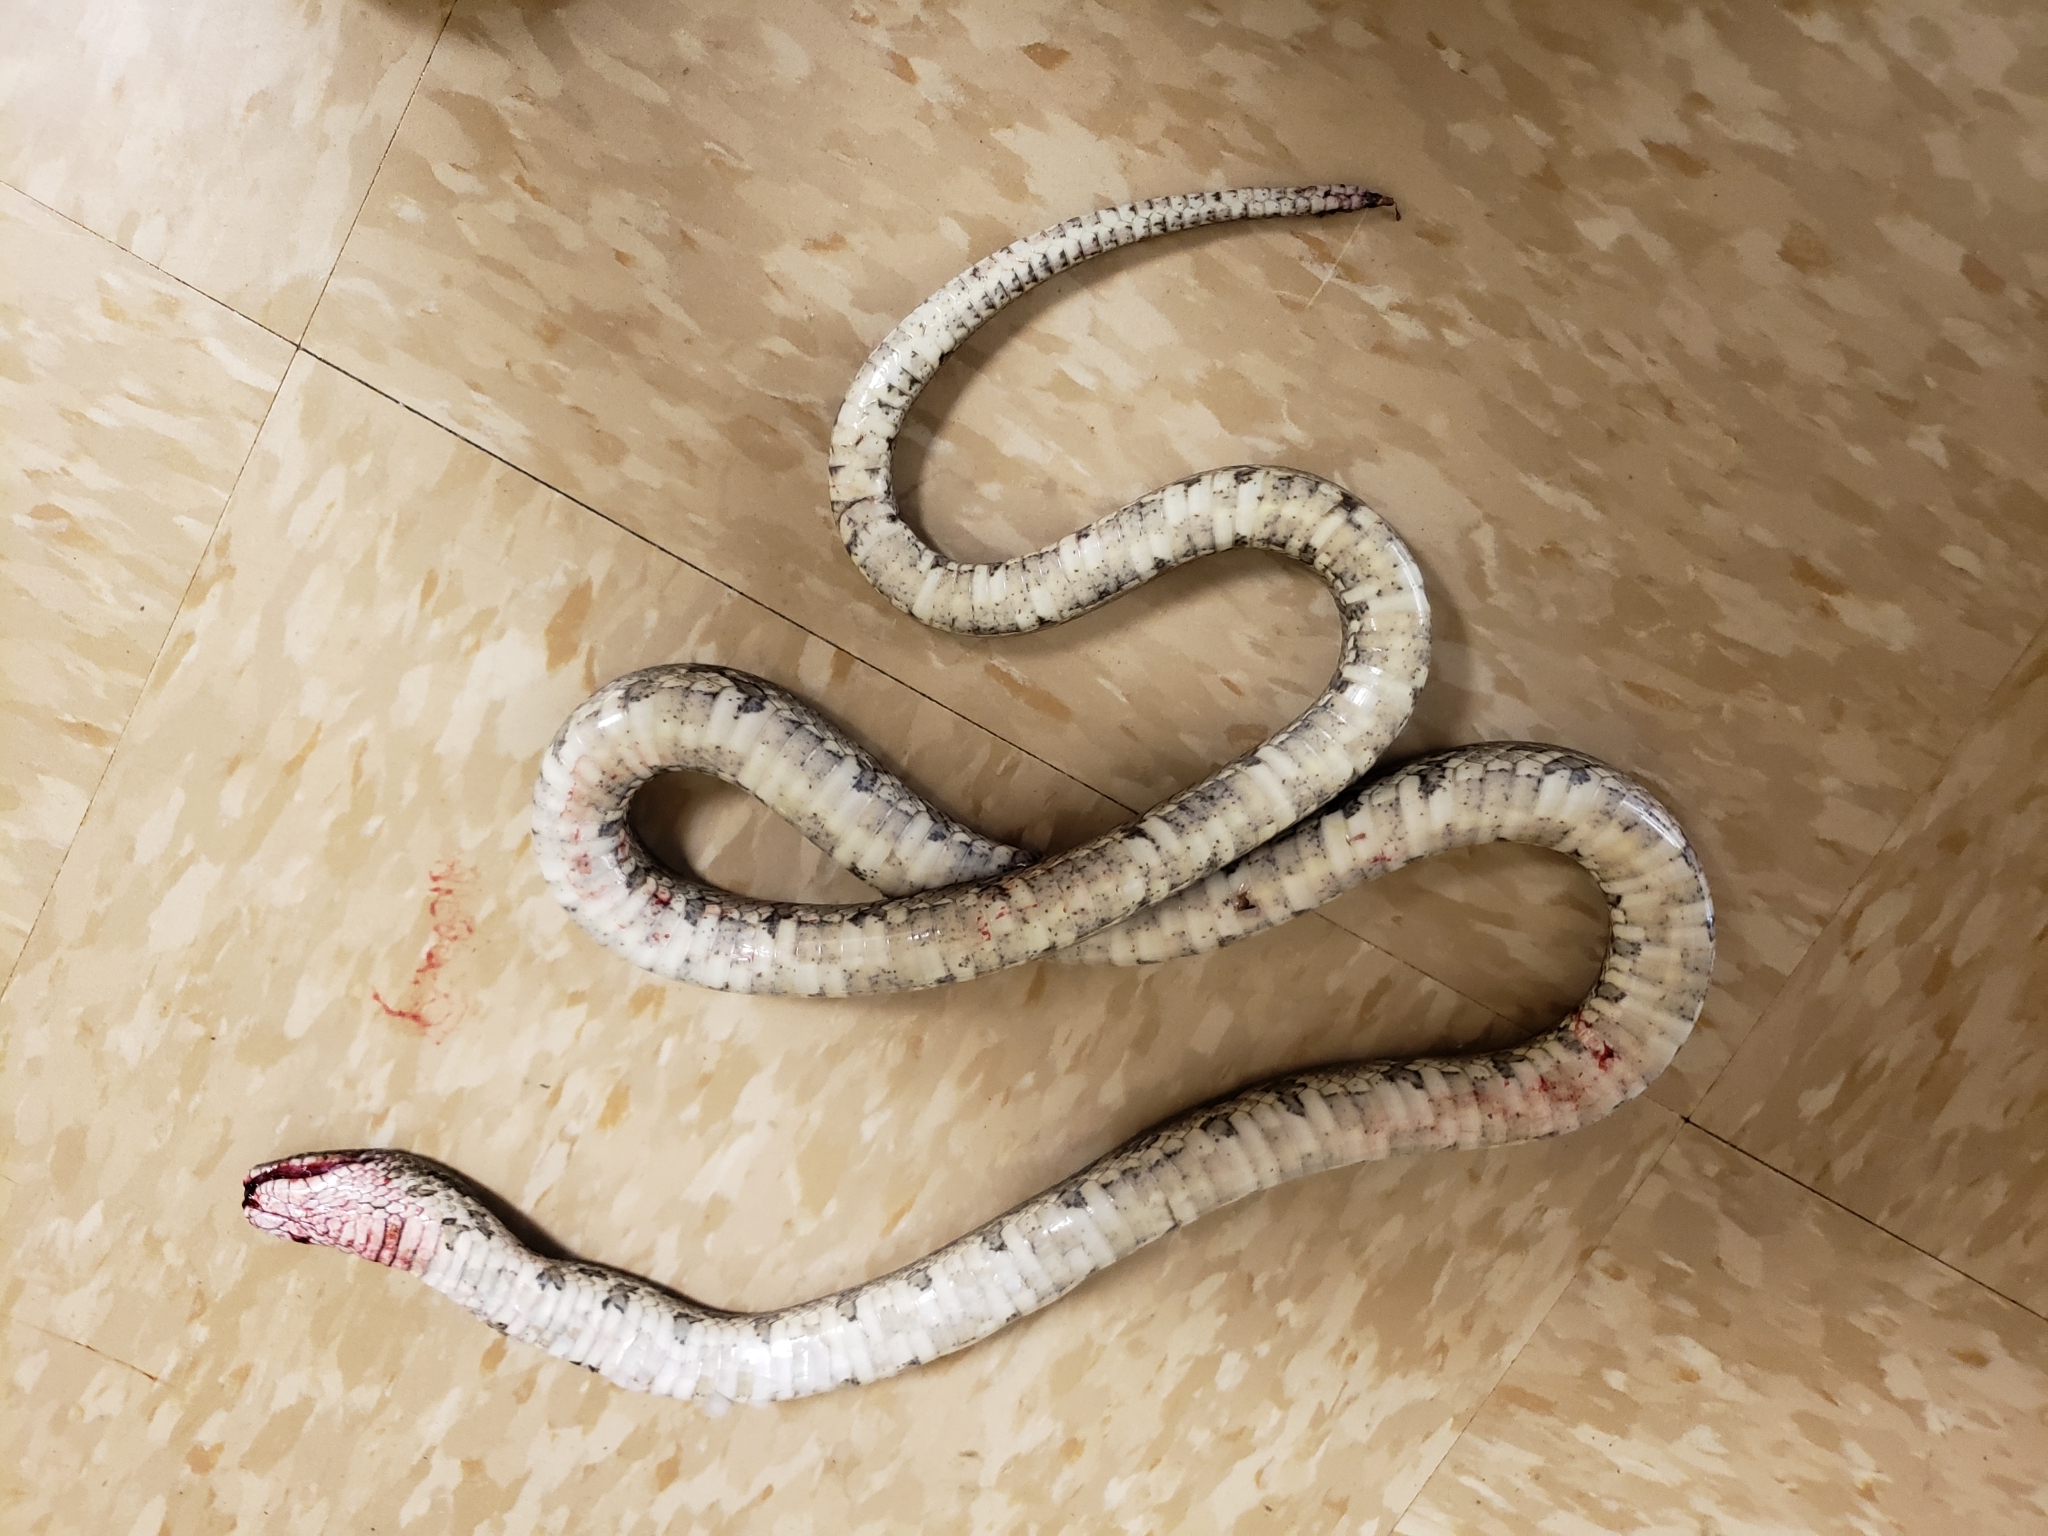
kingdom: Animalia
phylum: Chordata
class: Squamata
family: Colubridae
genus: Lampropeltis
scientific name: Lampropeltis calligaster
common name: Prairie kingsnake
